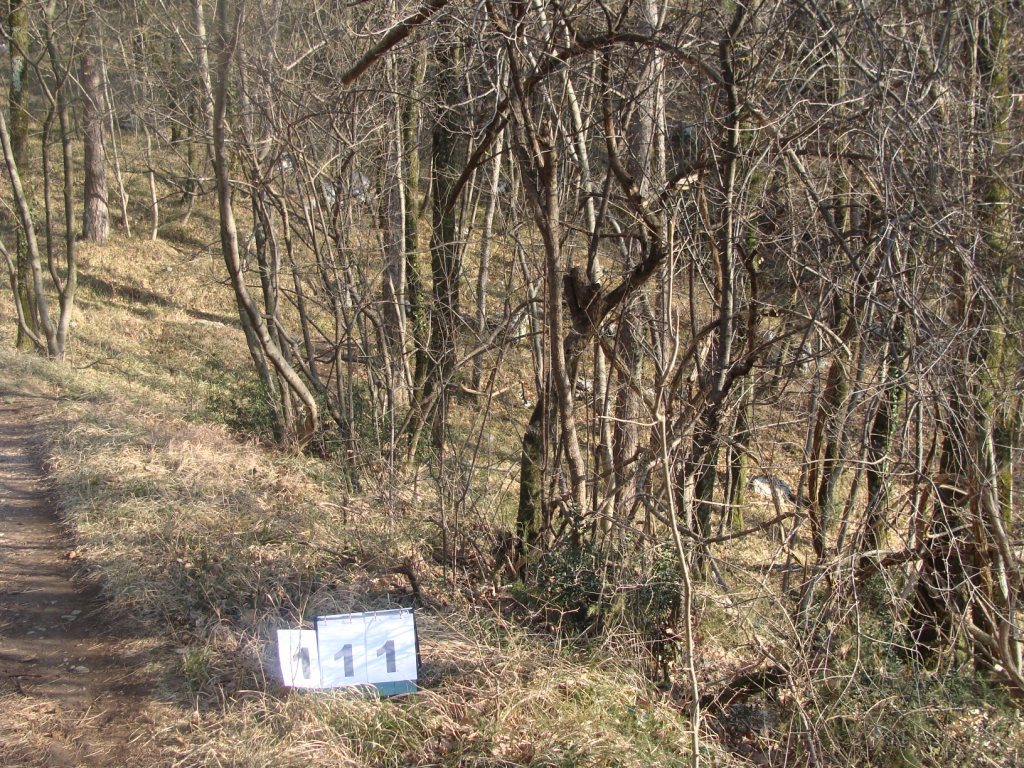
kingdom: Plantae
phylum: Tracheophyta
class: Magnoliopsida
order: Cornales
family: Cornaceae
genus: Cornus
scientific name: Cornus mas
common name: Cornelian-cherry
